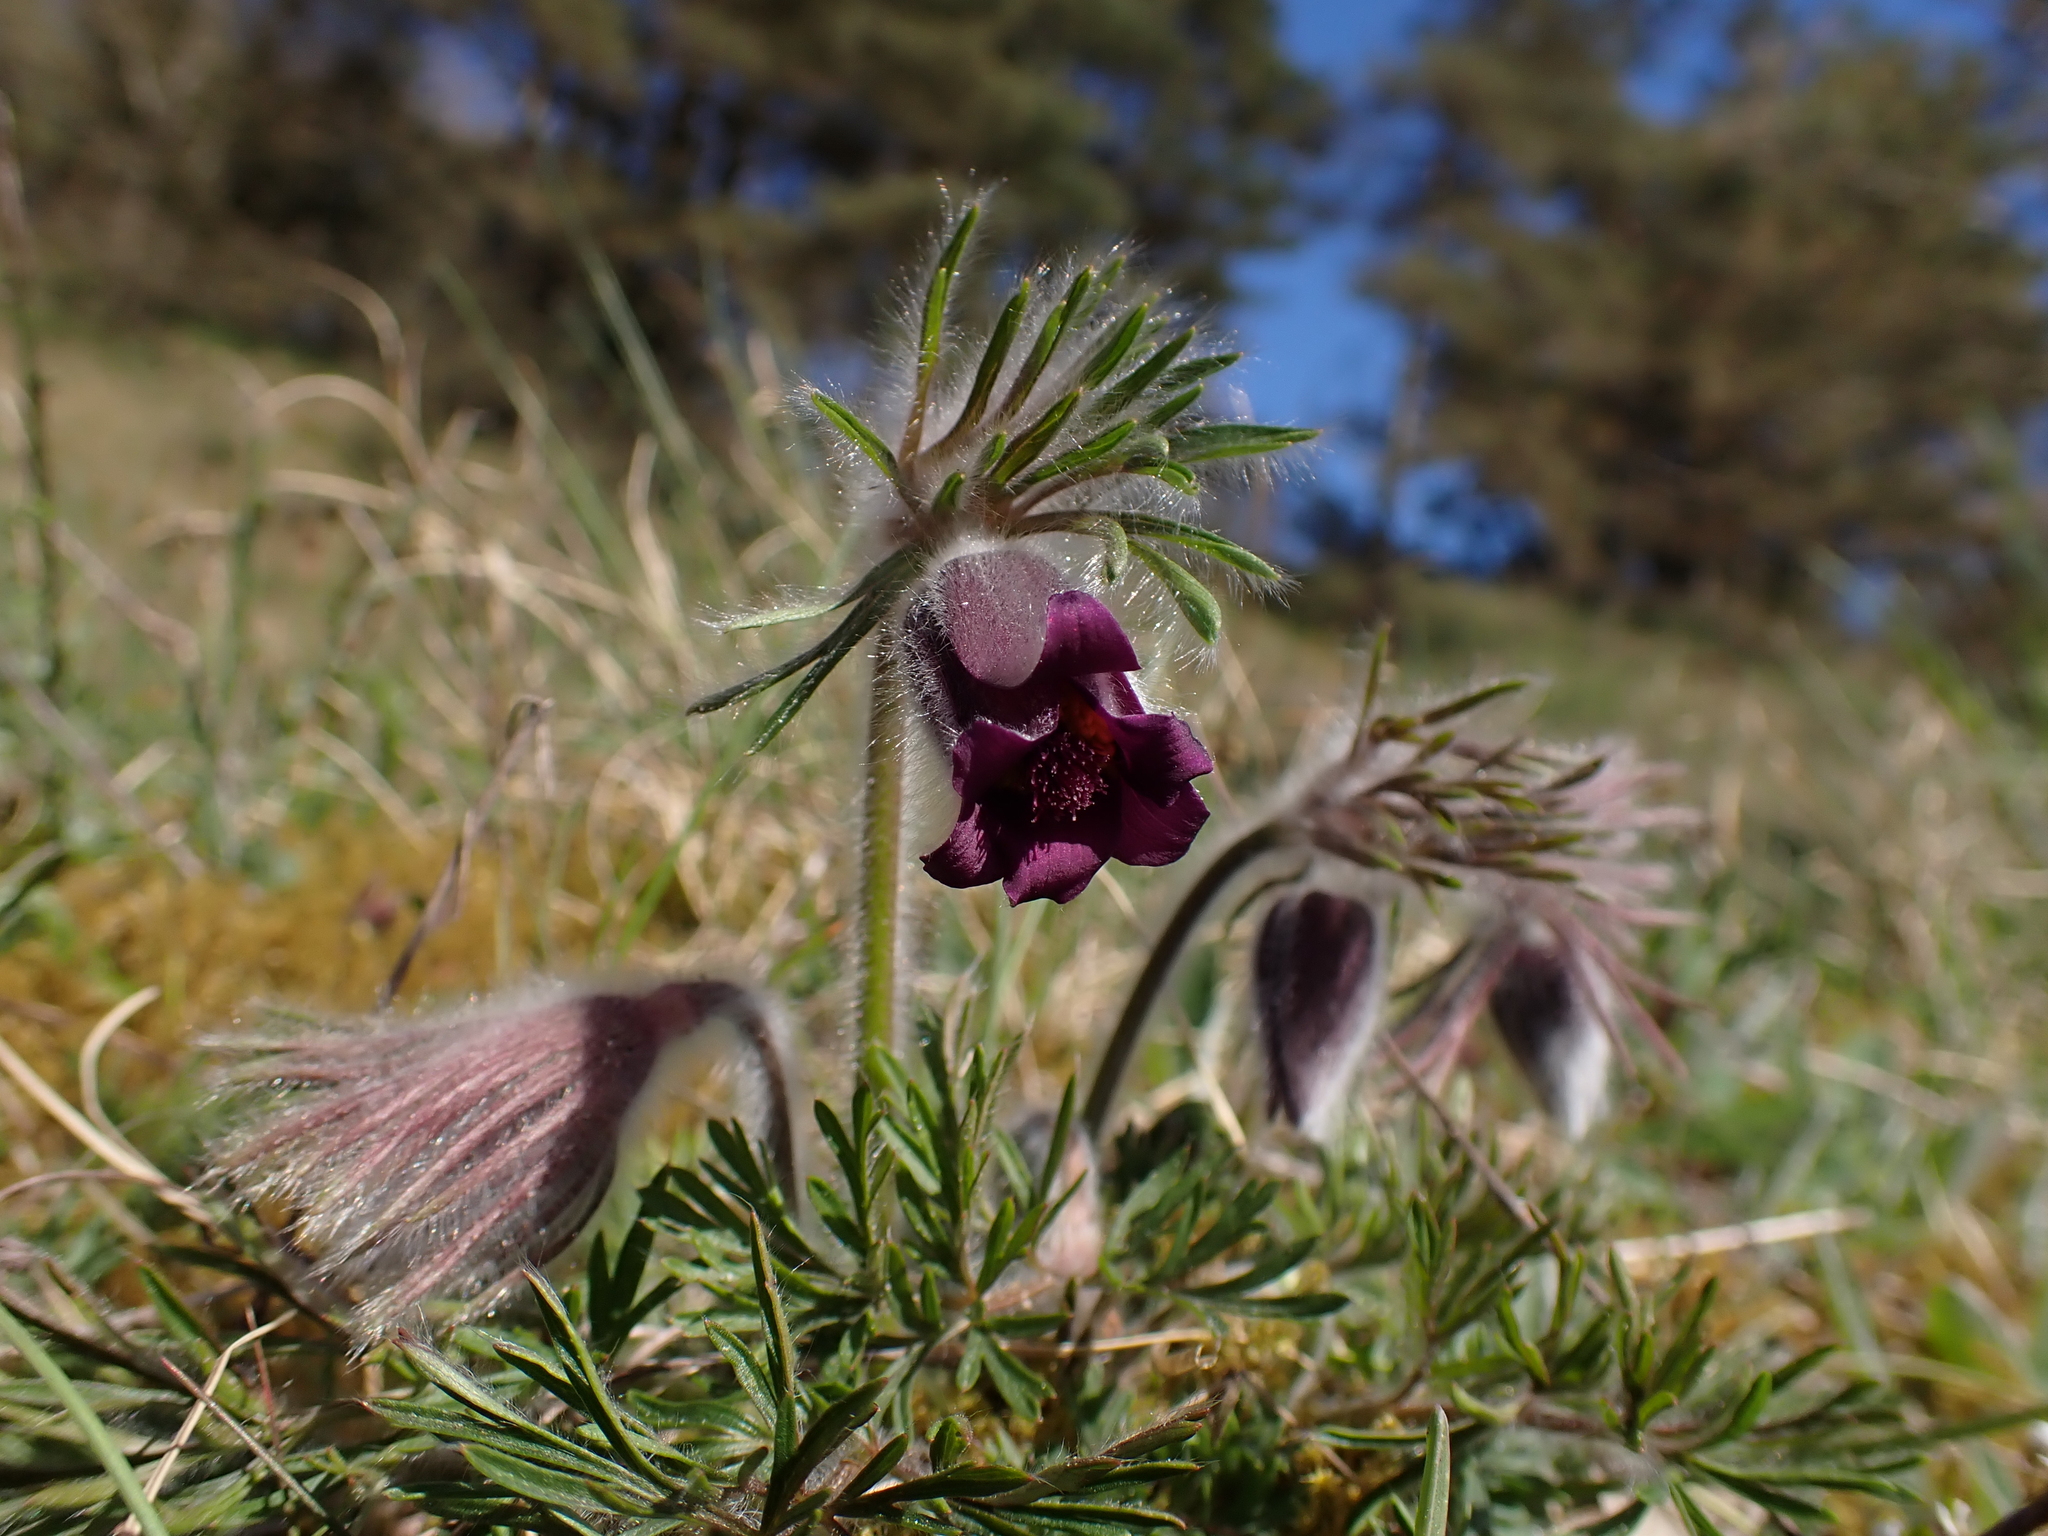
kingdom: Plantae
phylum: Tracheophyta
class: Magnoliopsida
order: Ranunculales
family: Ranunculaceae
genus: Pulsatilla
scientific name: Pulsatilla pratensis
